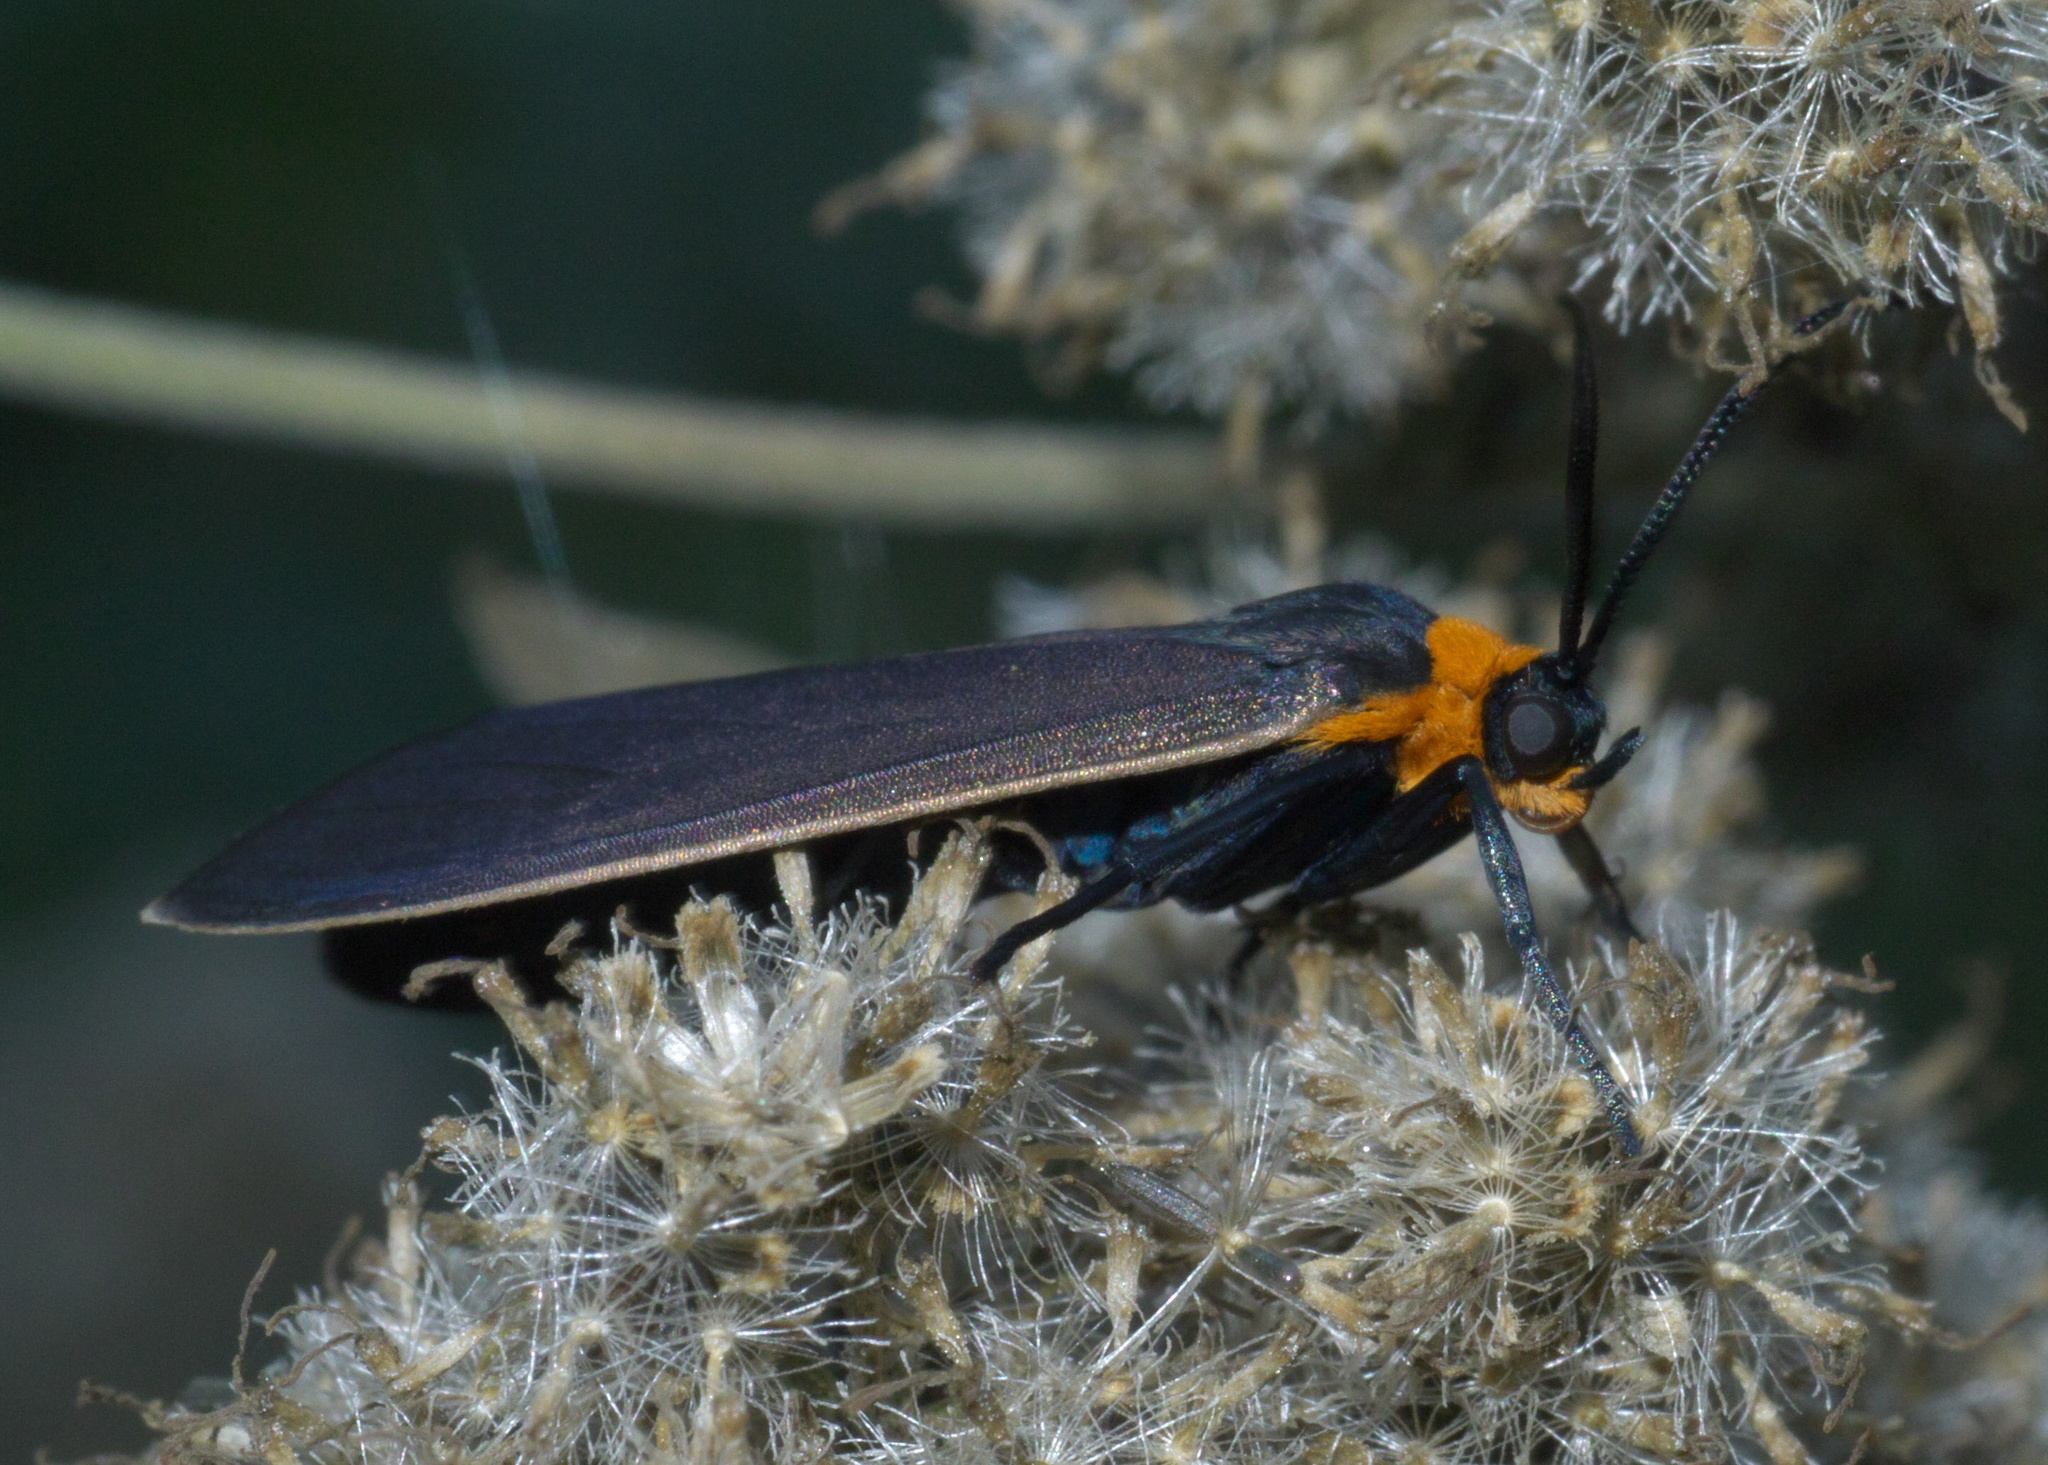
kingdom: Animalia
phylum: Arthropoda
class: Insecta
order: Lepidoptera
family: Erebidae
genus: Cisseps
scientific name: Cisseps fulvicollis
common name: Yellow-collared scape moth
